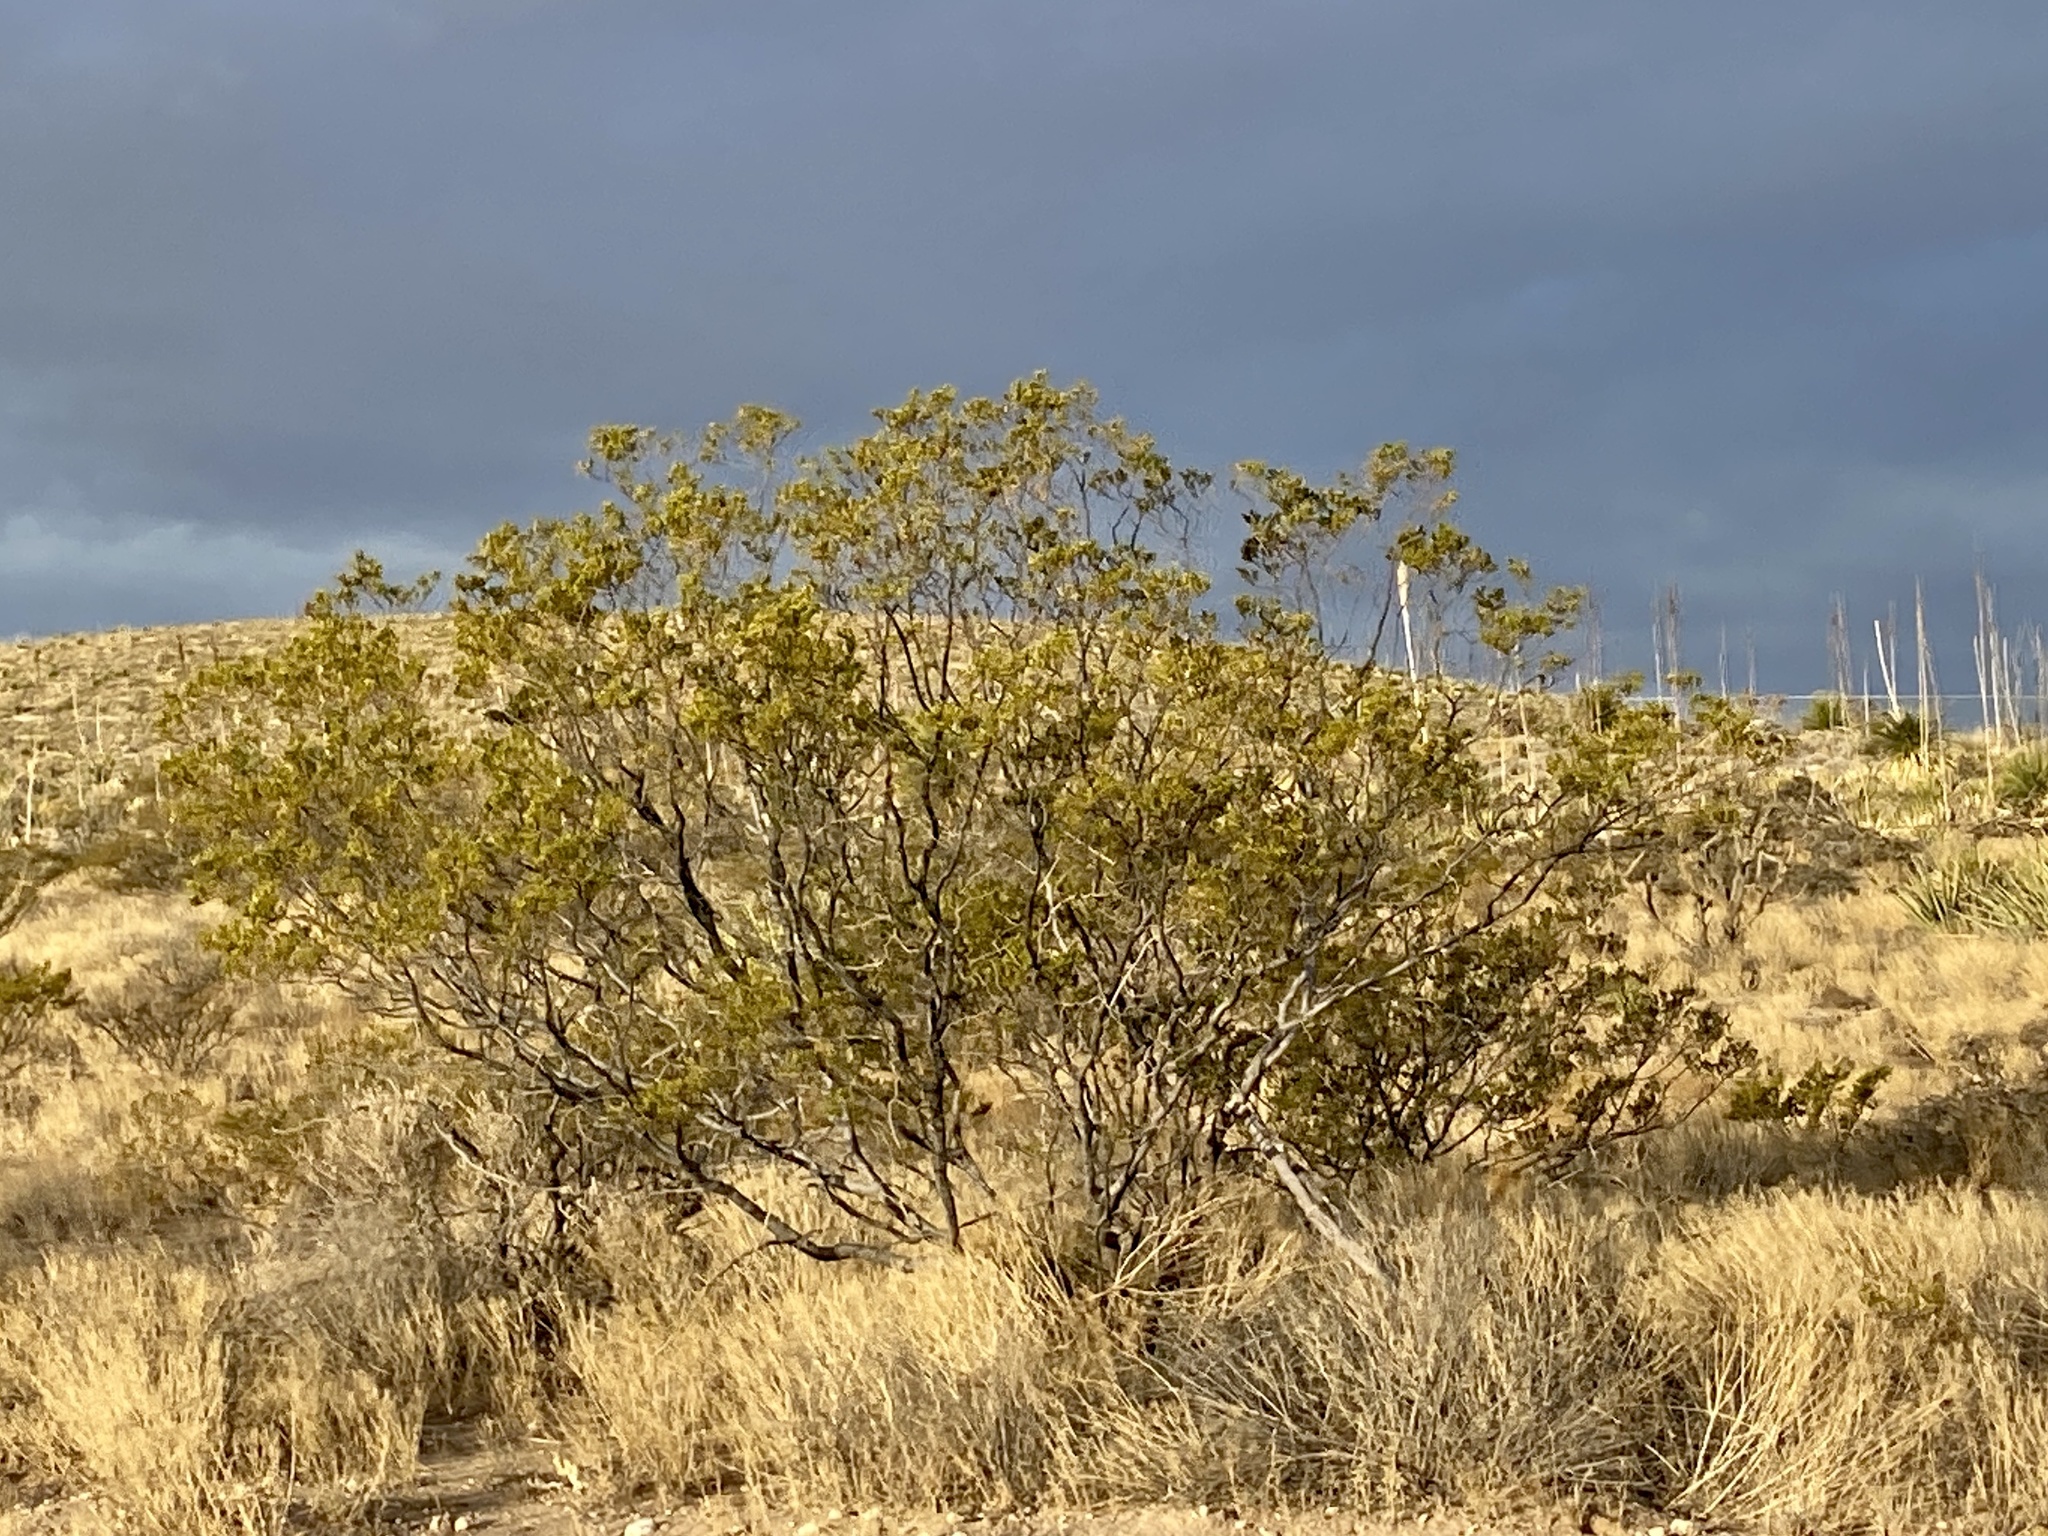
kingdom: Plantae
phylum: Tracheophyta
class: Magnoliopsida
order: Zygophyllales
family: Zygophyllaceae
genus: Larrea
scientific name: Larrea tridentata
